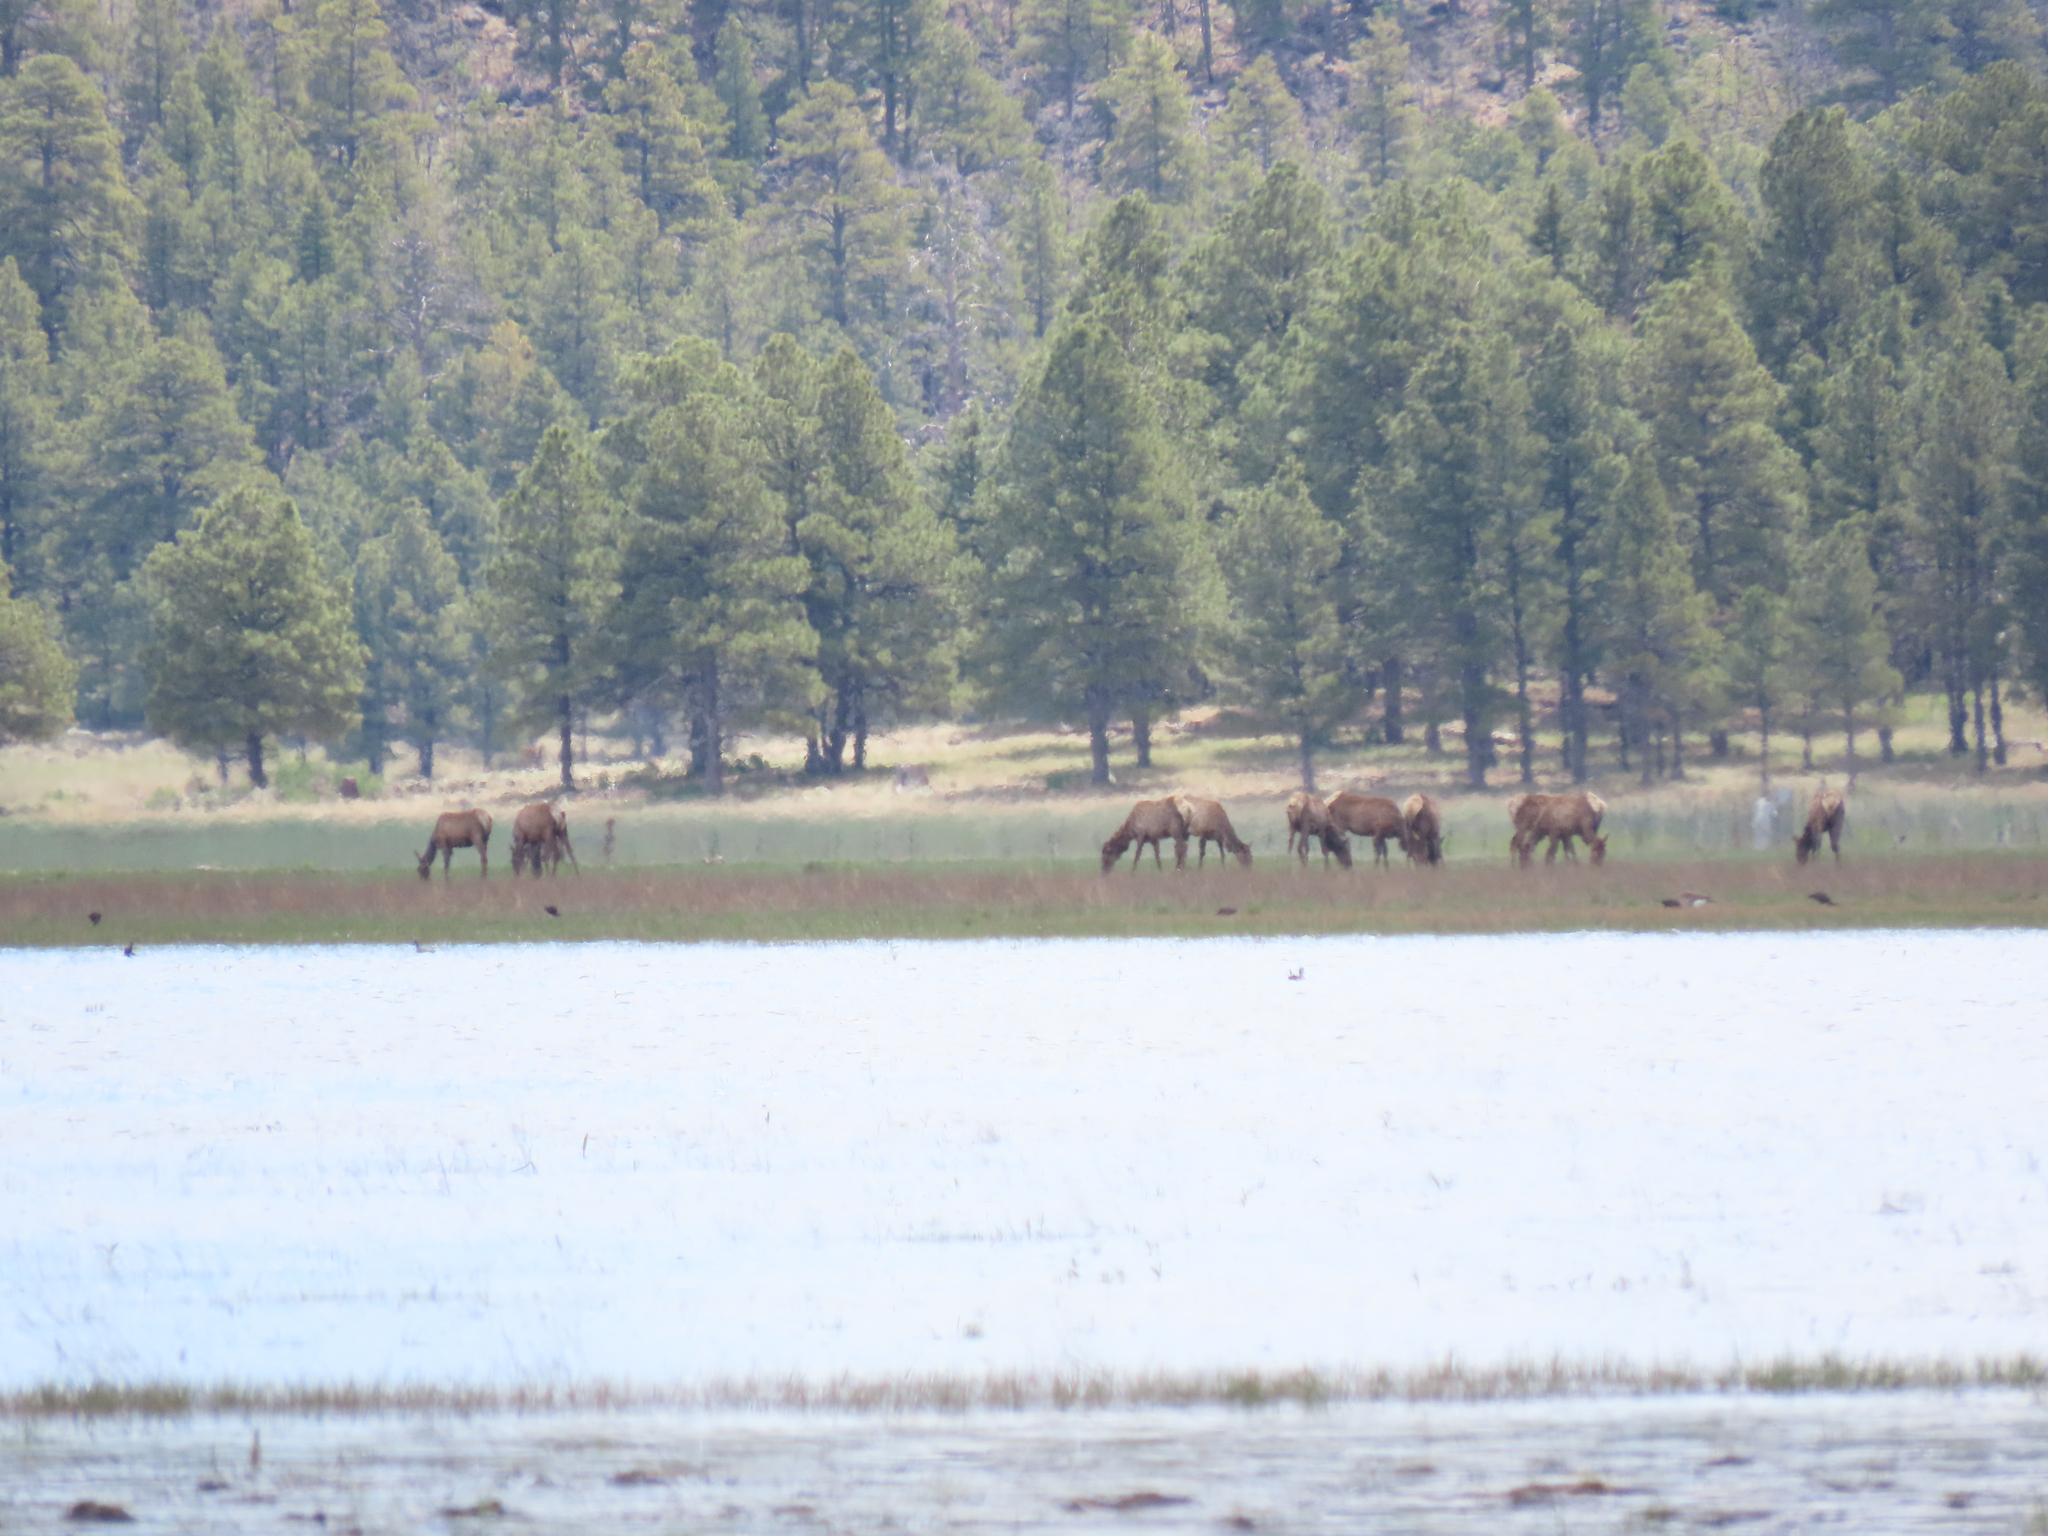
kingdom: Animalia
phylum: Chordata
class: Mammalia
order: Artiodactyla
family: Cervidae
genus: Cervus
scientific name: Cervus elaphus
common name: Red deer
